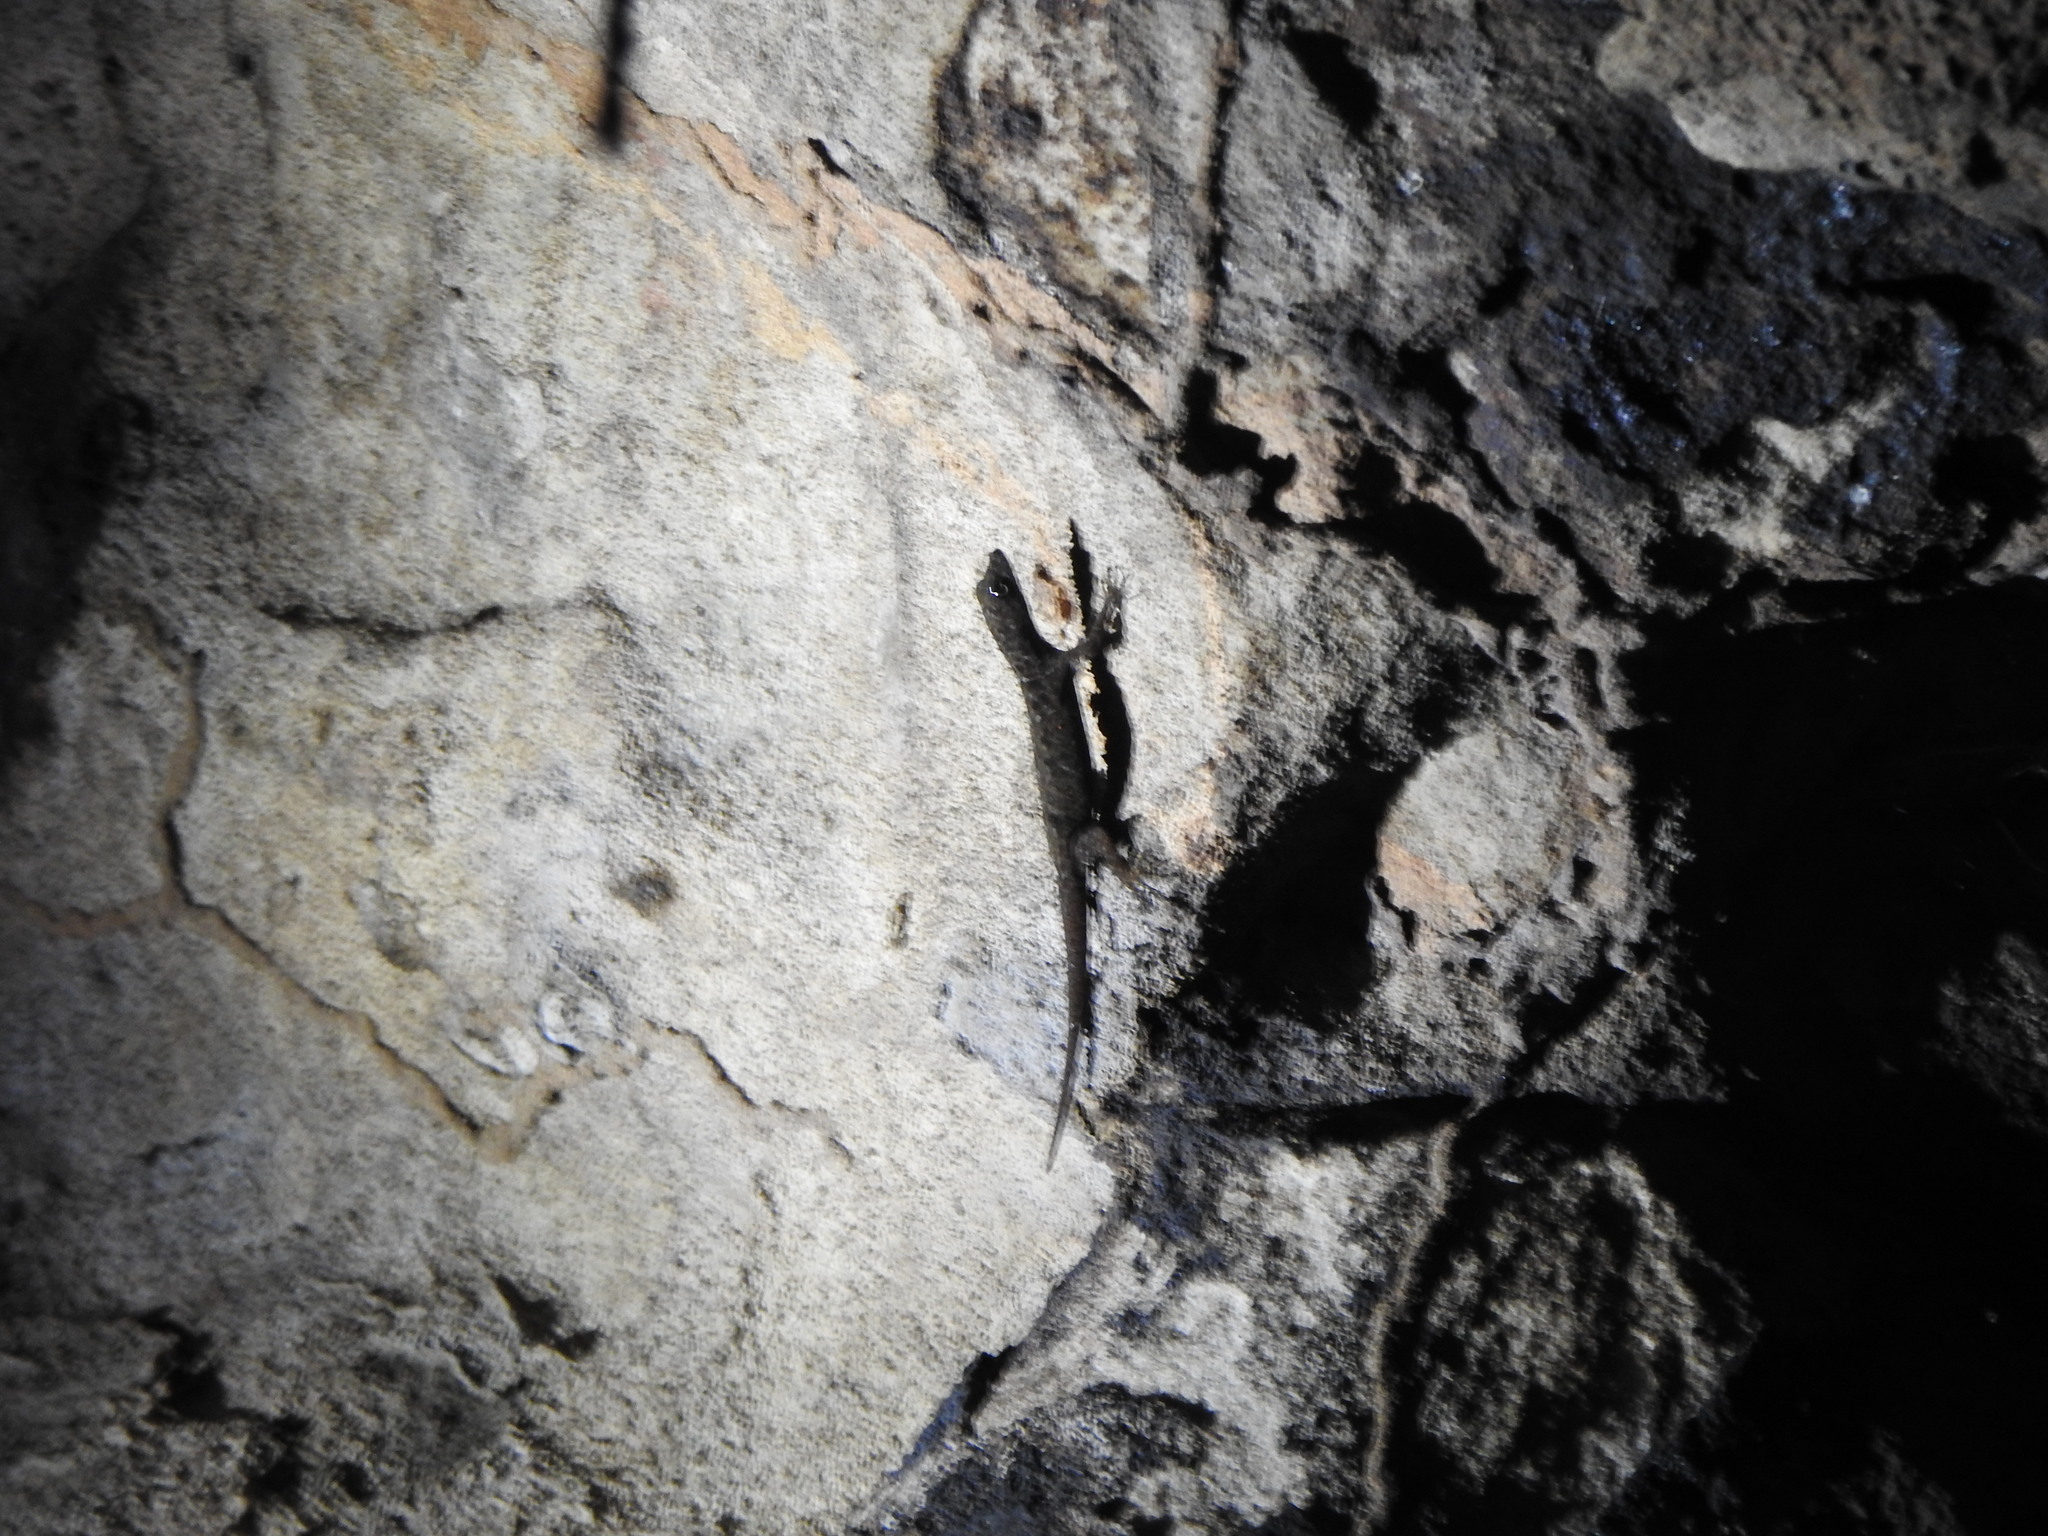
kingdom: Animalia
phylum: Chordata
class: Squamata
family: Sphaerodactylidae
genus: Gonatodes
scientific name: Gonatodes humeralis
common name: South american clawed gecko
